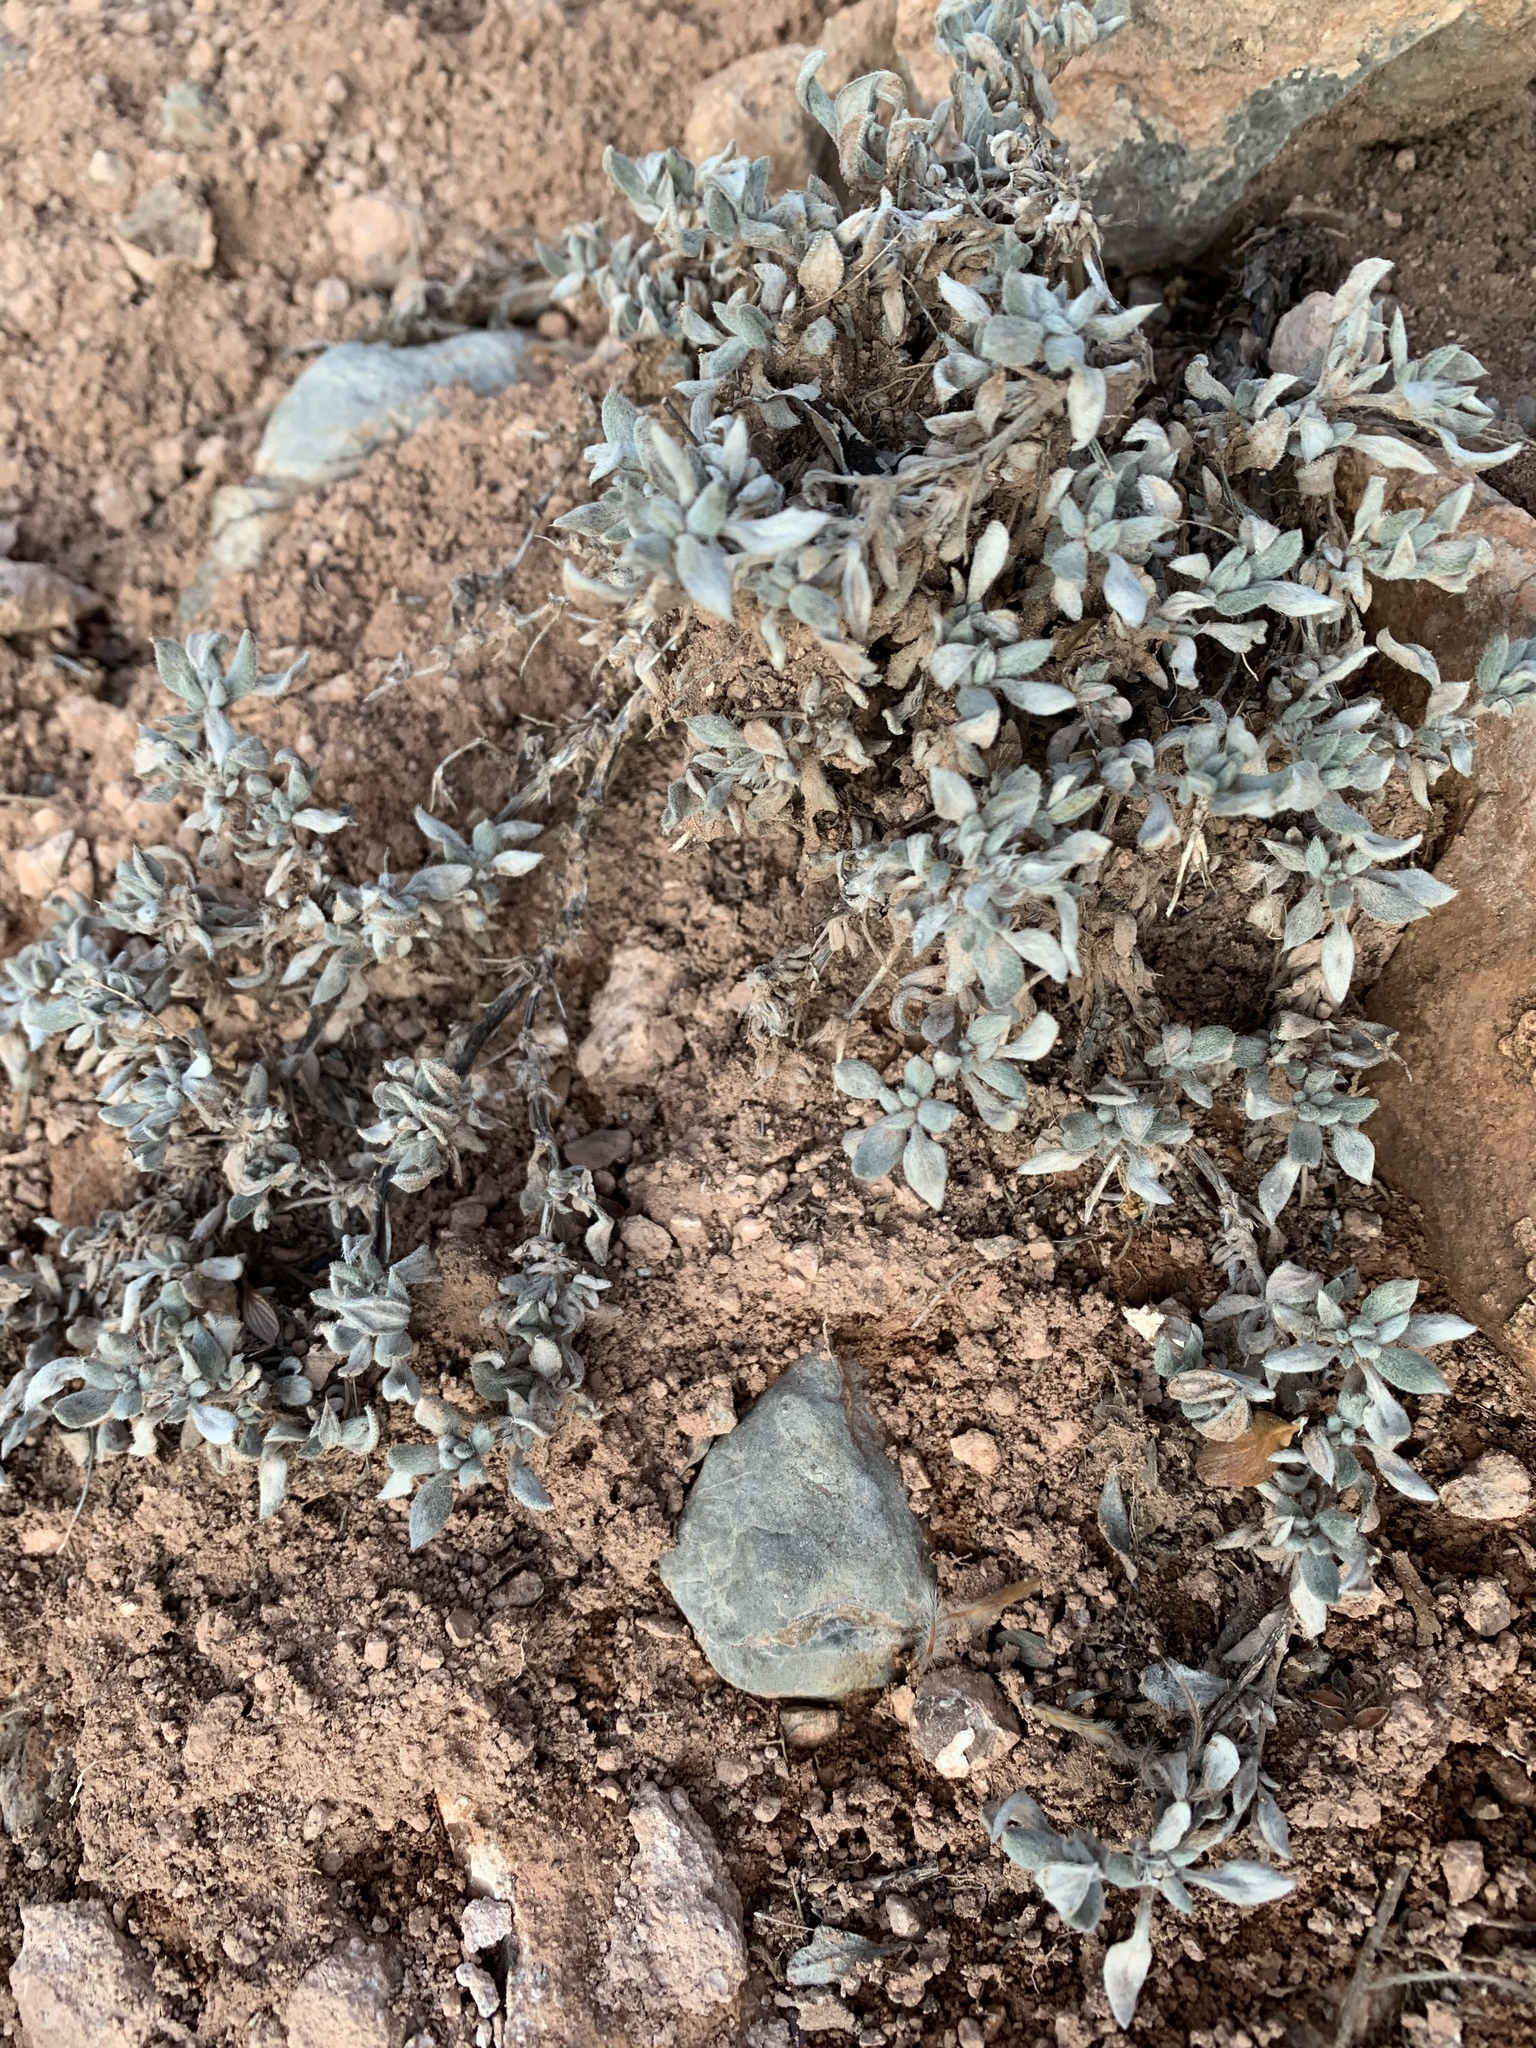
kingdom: Plantae
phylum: Tracheophyta
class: Magnoliopsida
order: Boraginales
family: Ehretiaceae
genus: Tiquilia
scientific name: Tiquilia canescens
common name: Hairy tiquilia
